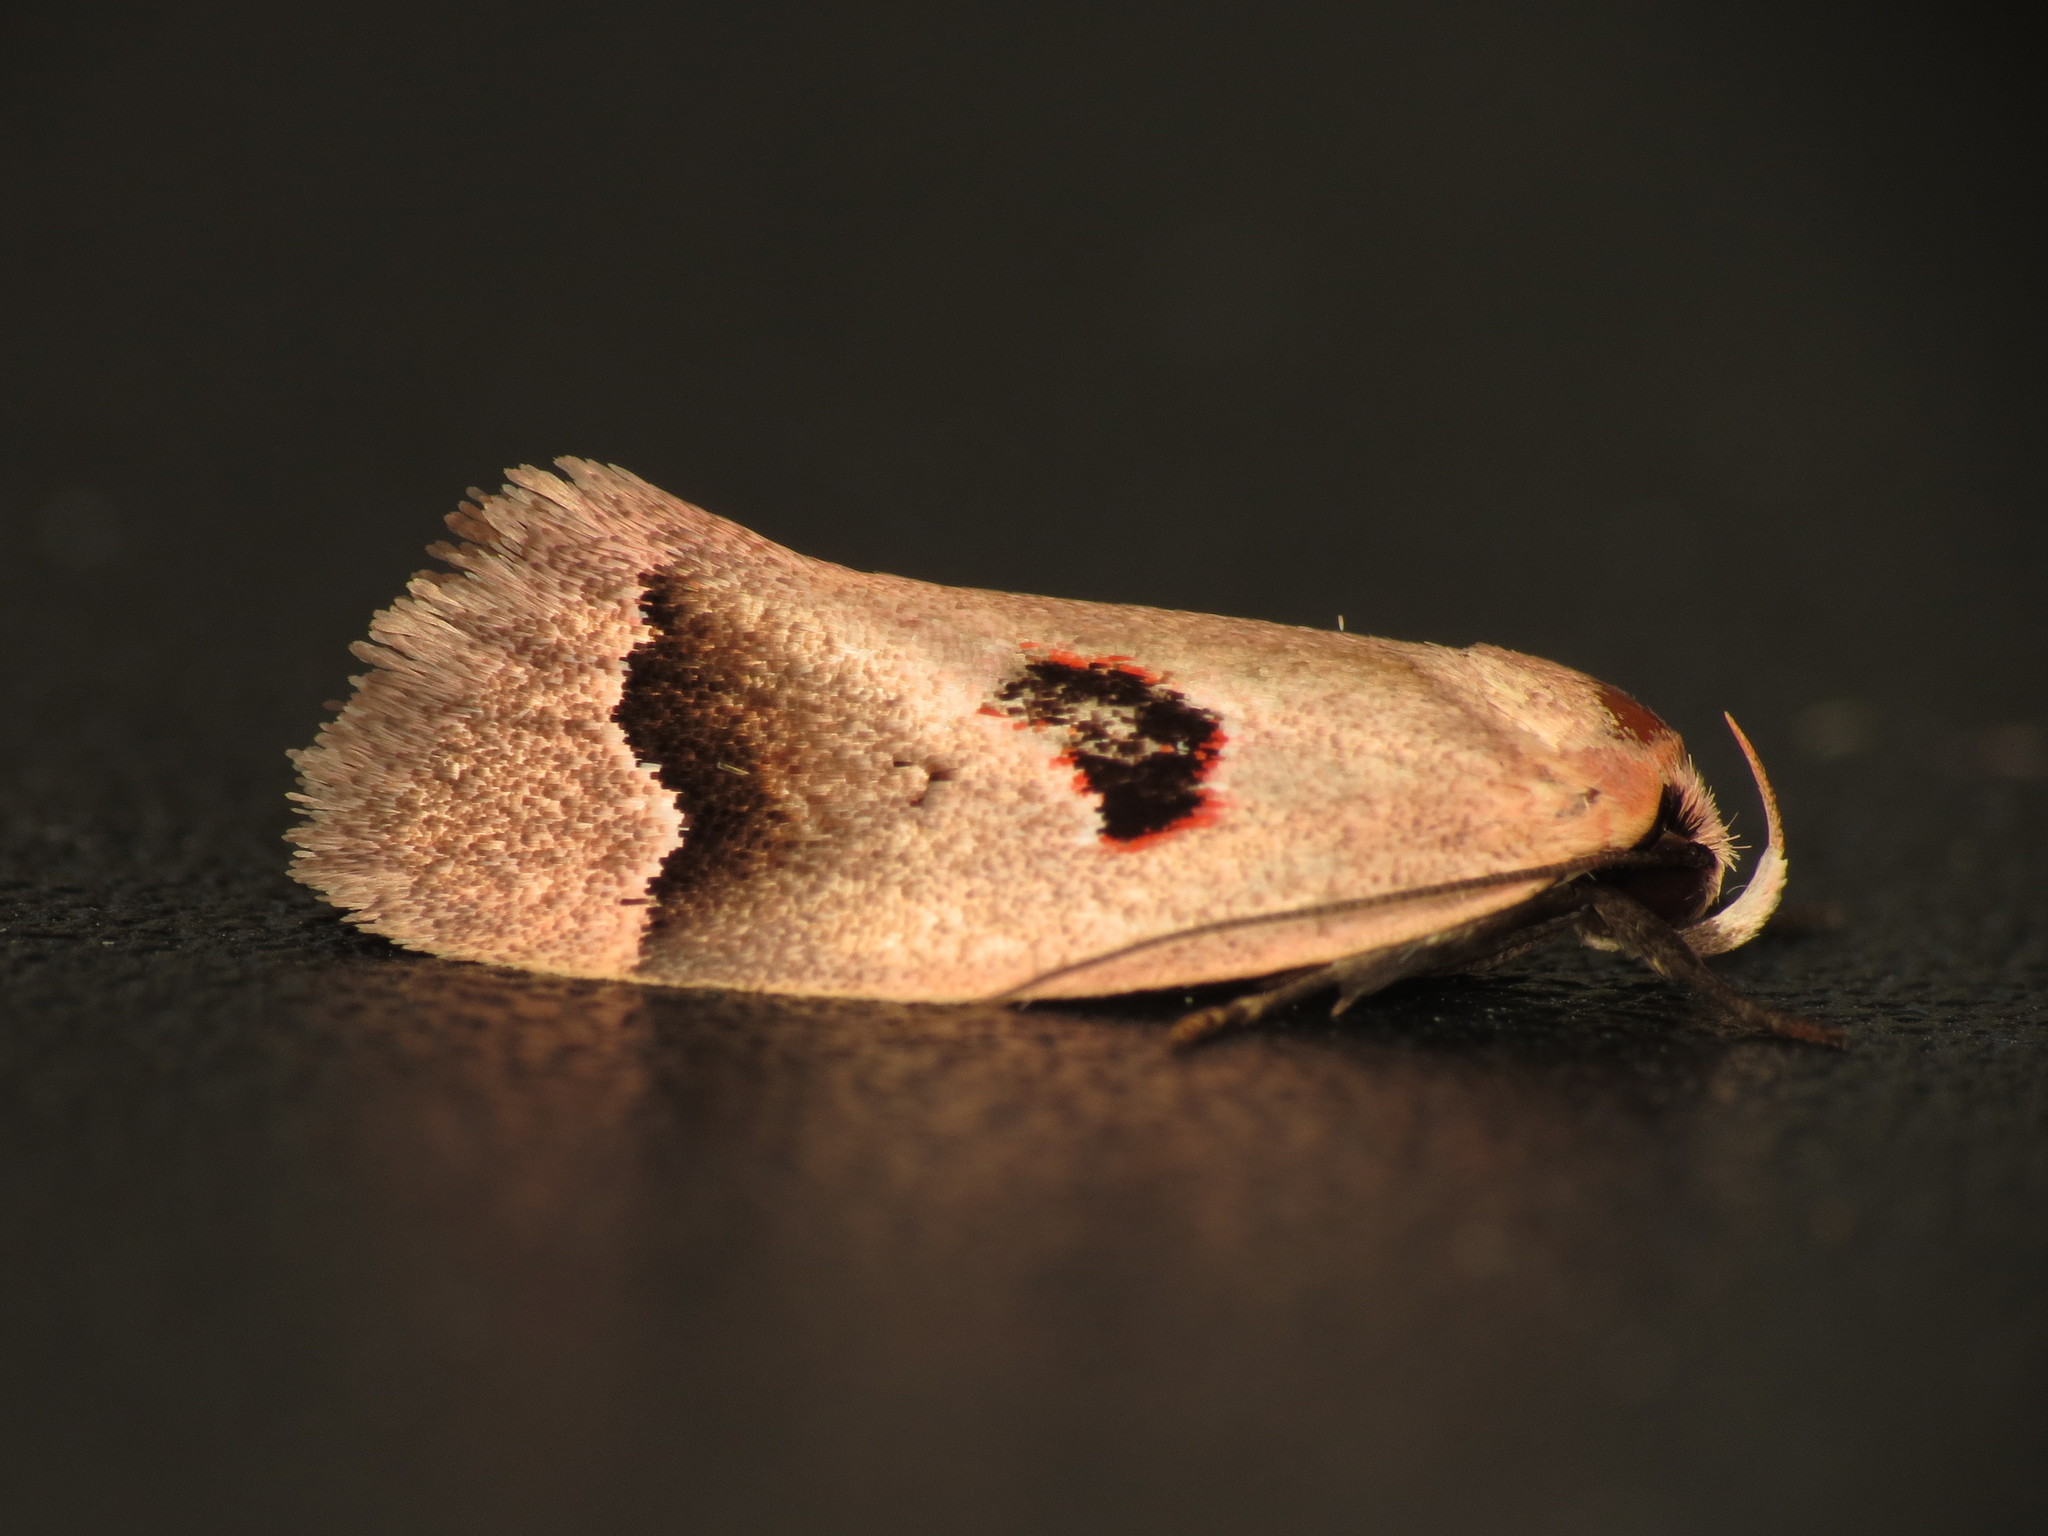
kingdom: Animalia
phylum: Arthropoda
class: Insecta
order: Lepidoptera
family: Oecophoridae
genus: Acanthodela
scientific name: Acanthodela erythrosema
